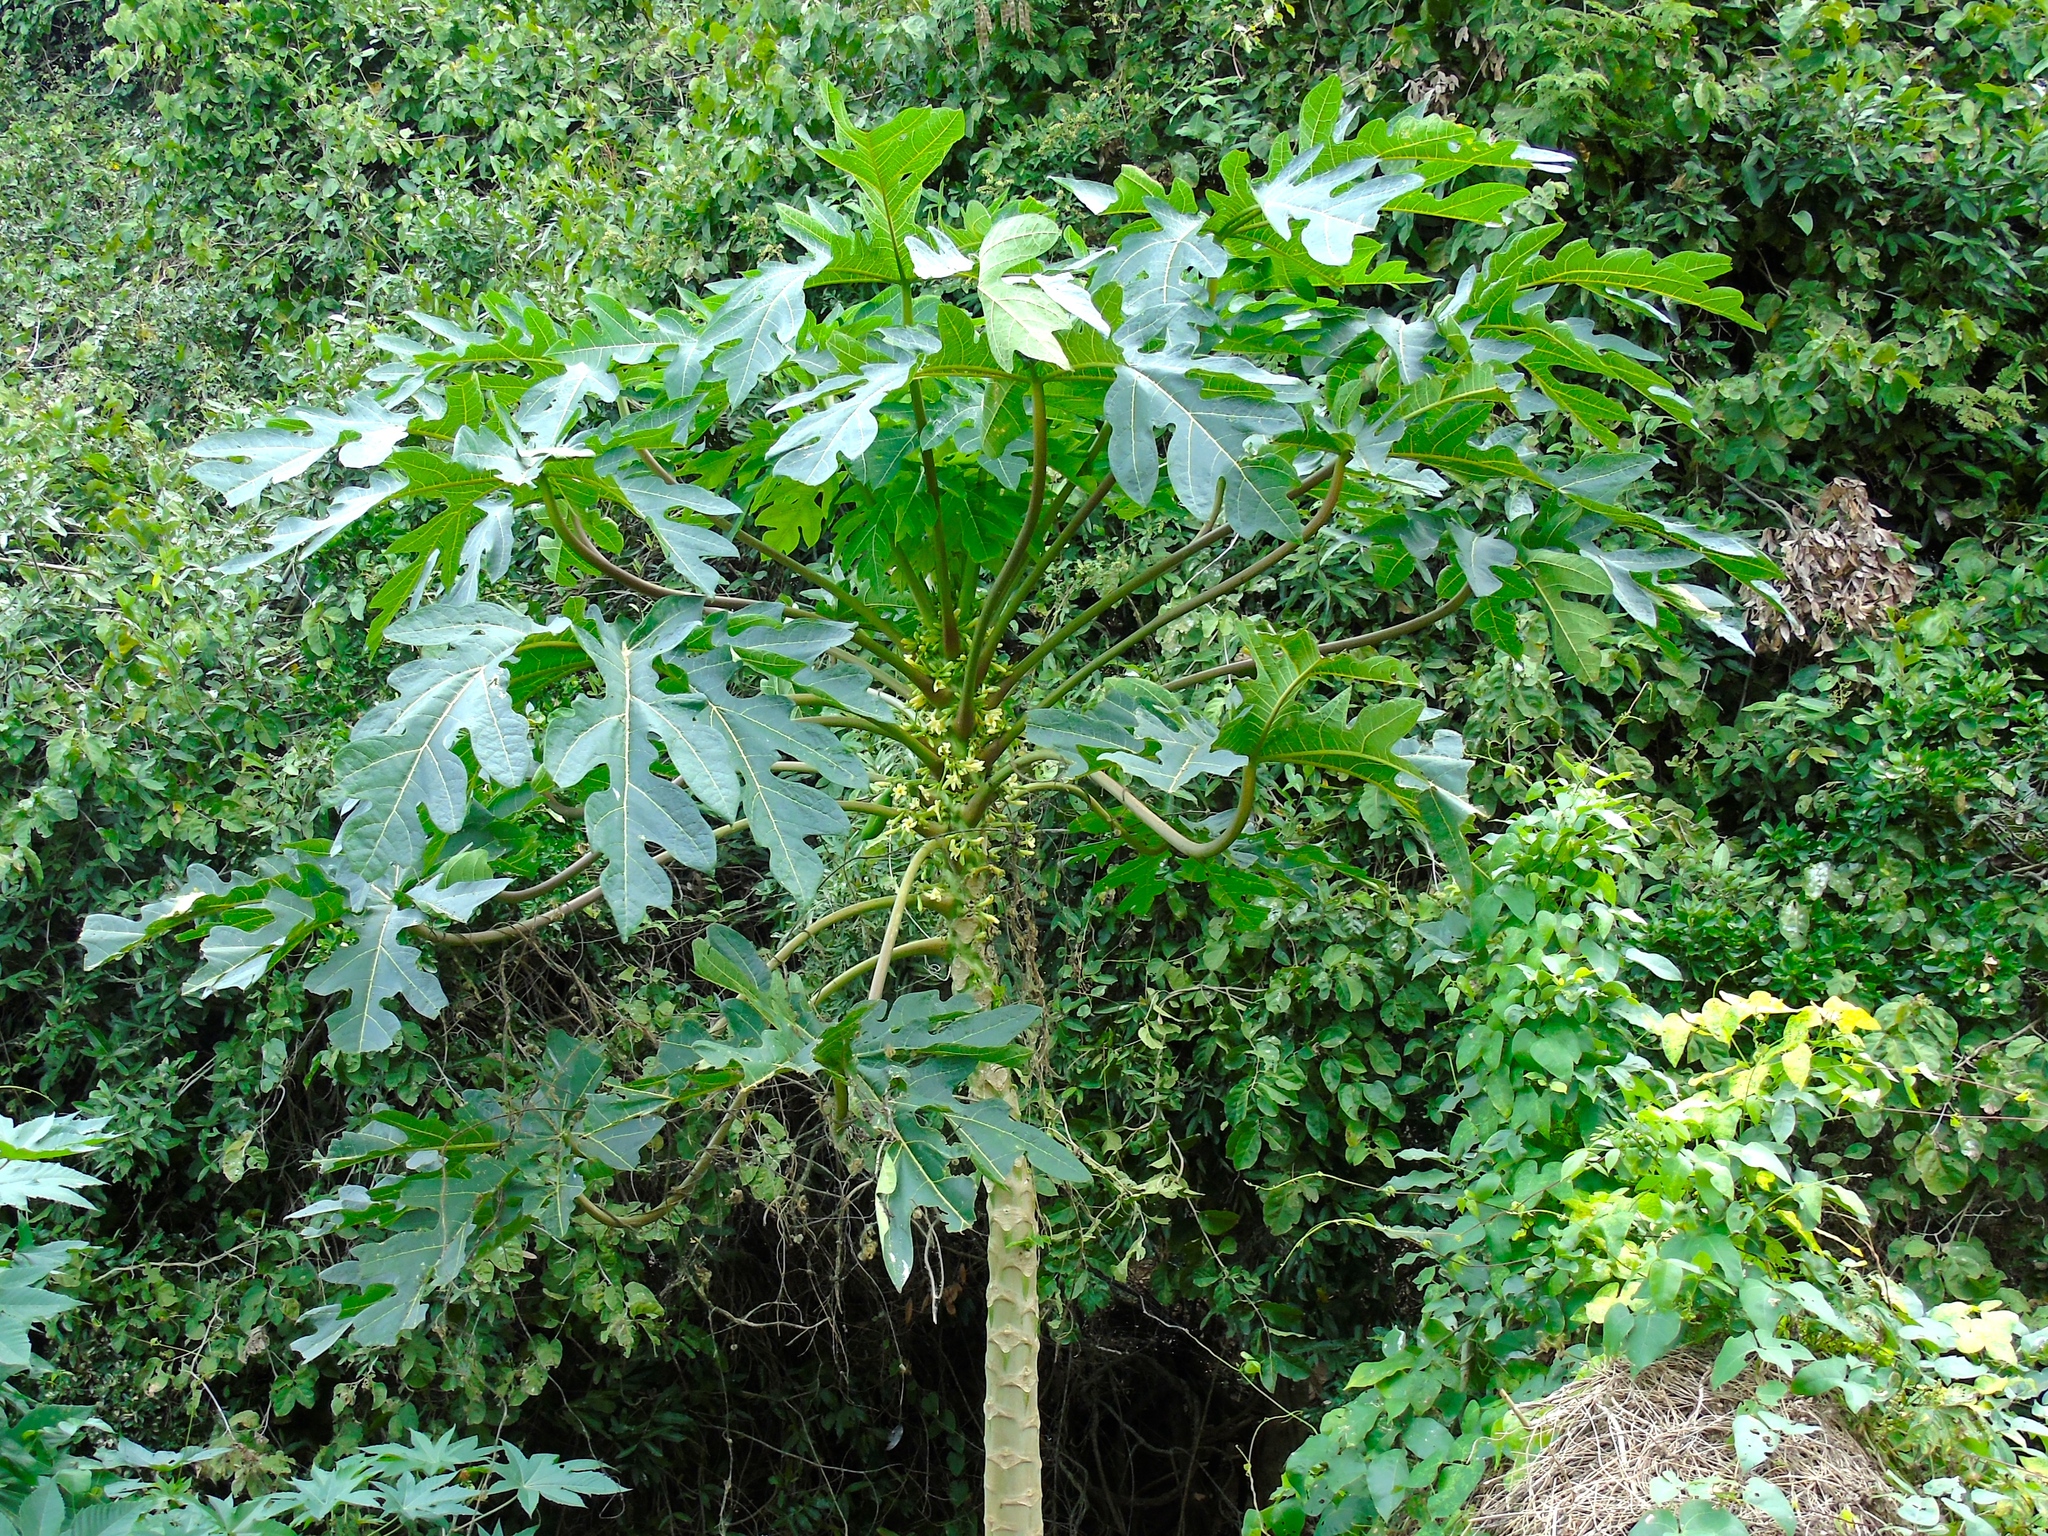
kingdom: Plantae
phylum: Tracheophyta
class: Magnoliopsida
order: Brassicales
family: Caricaceae
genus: Carica
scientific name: Carica papaya
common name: Papaya
